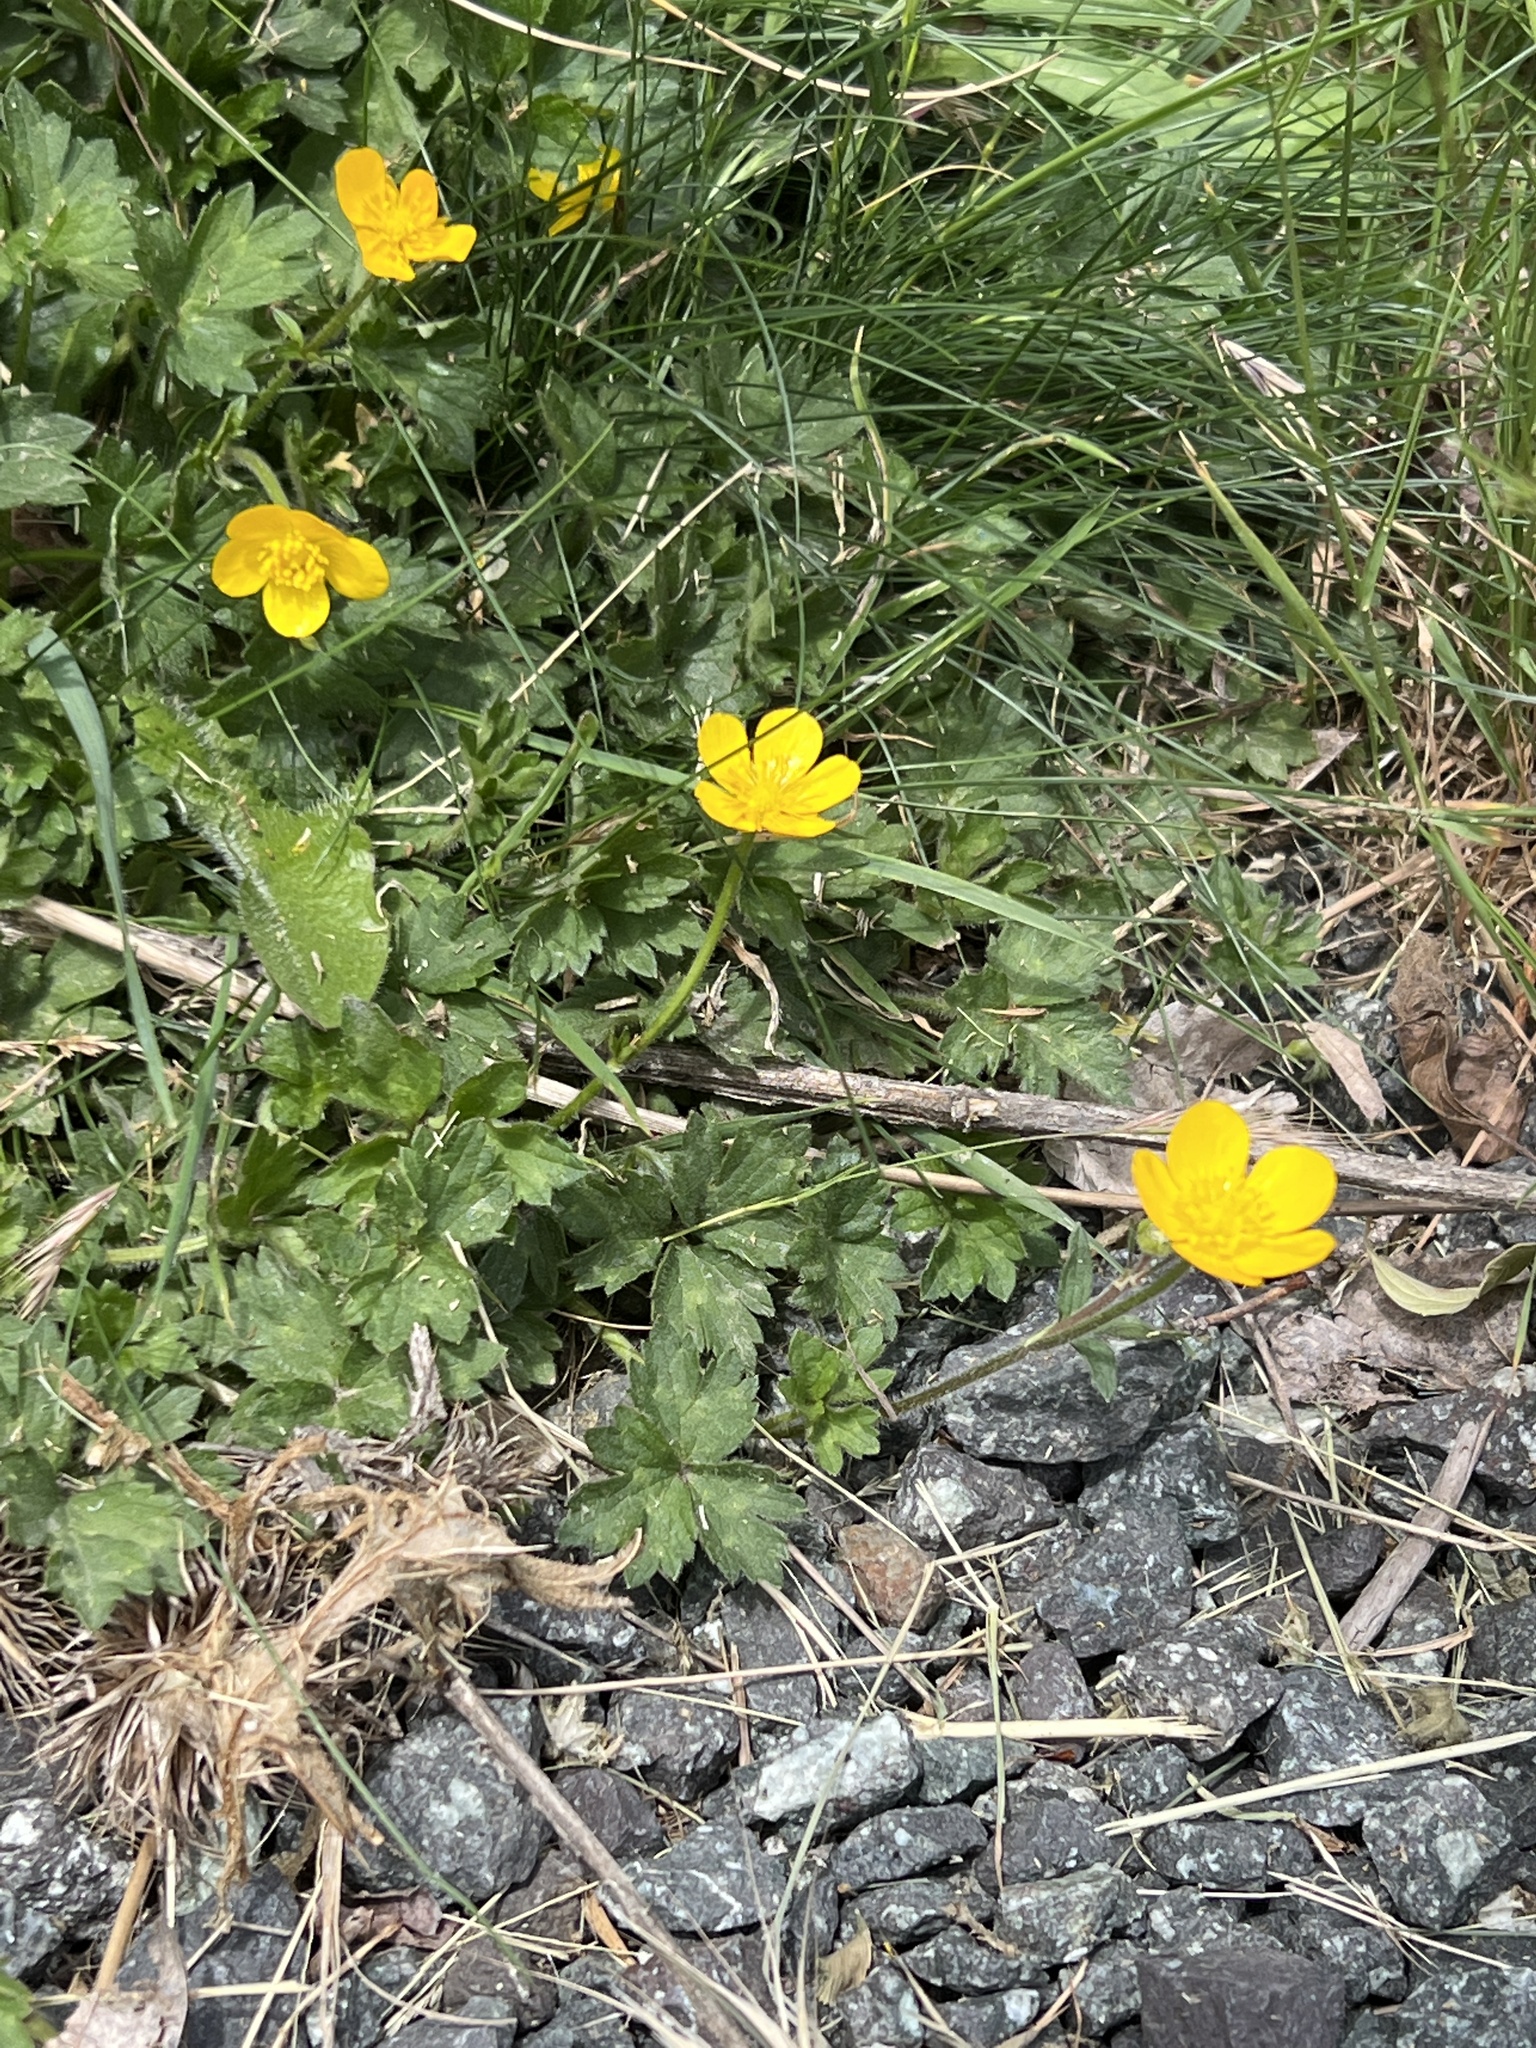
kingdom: Plantae
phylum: Tracheophyta
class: Magnoliopsida
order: Ranunculales
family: Ranunculaceae
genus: Ranunculus
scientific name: Ranunculus repens
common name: Creeping buttercup
